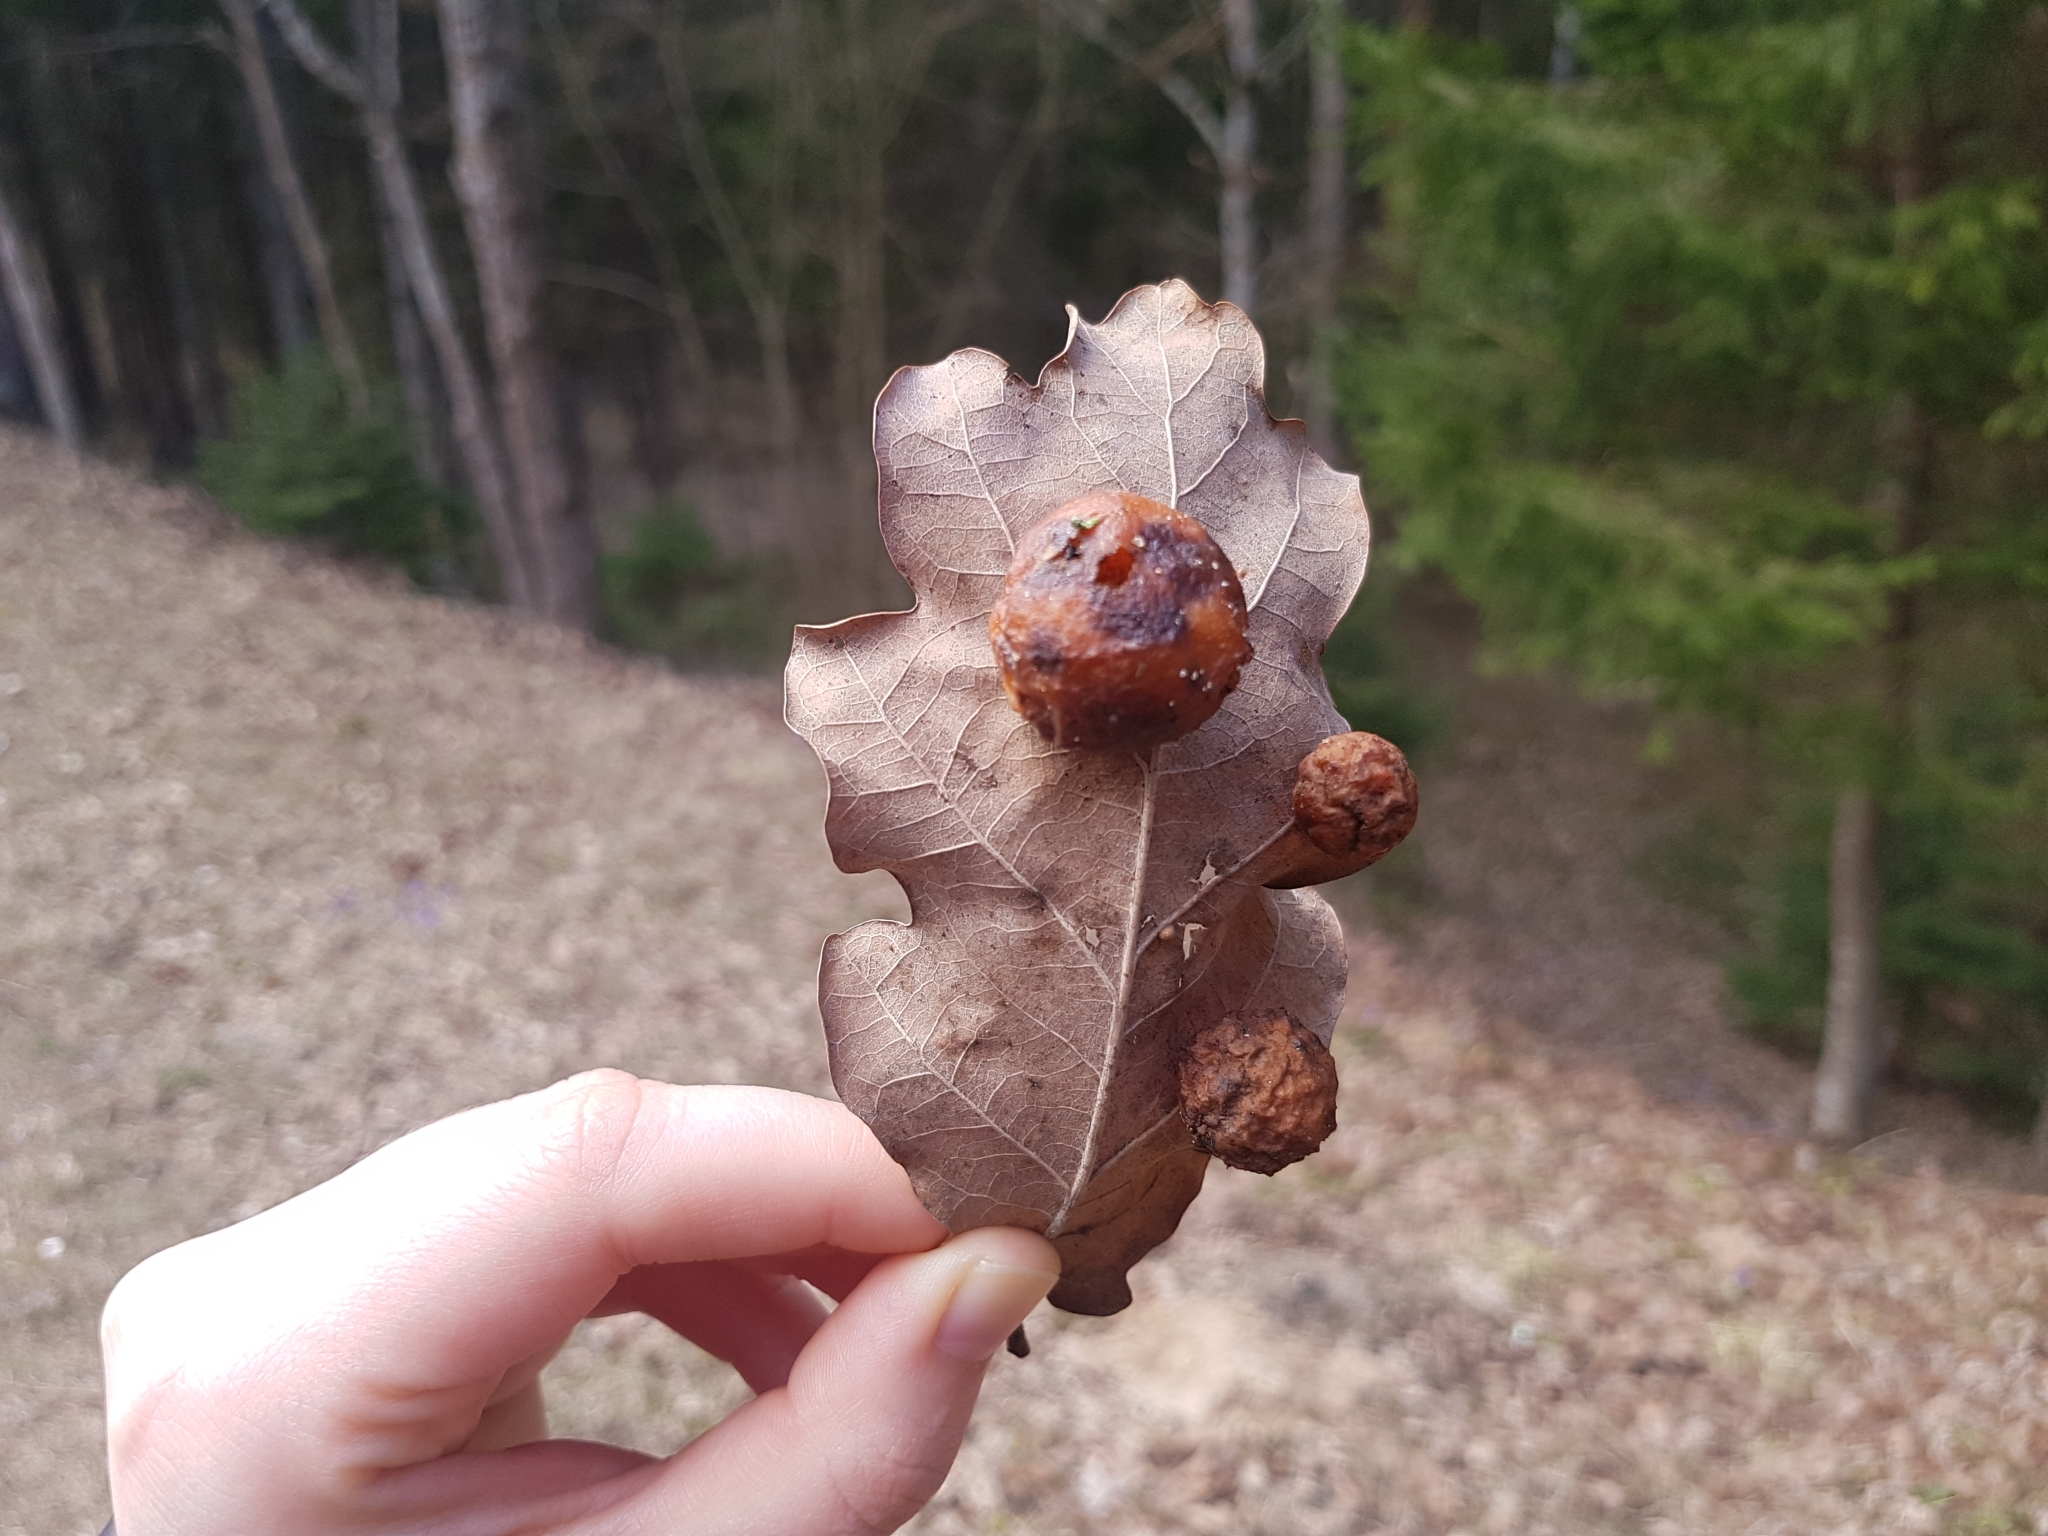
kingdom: Animalia
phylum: Arthropoda
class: Insecta
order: Hymenoptera
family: Cynipidae
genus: Cynips
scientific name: Cynips quercusfolii
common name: Cherry gall
